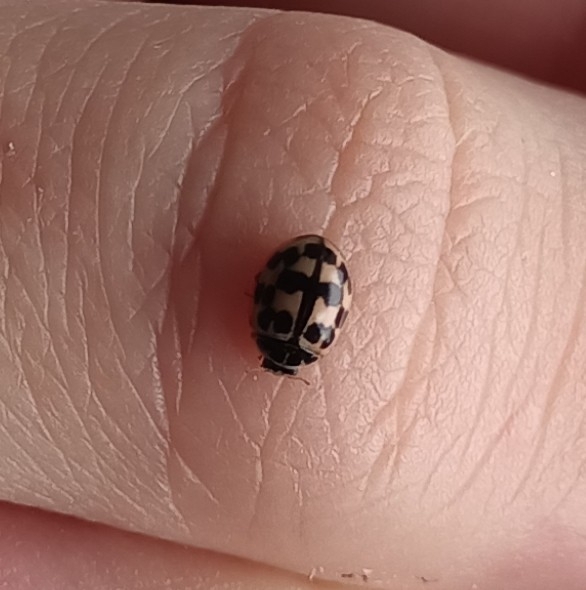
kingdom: Animalia
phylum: Arthropoda
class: Insecta
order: Coleoptera
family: Coccinellidae
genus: Oenopia
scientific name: Oenopia conglobata
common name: Ladybird beetle
